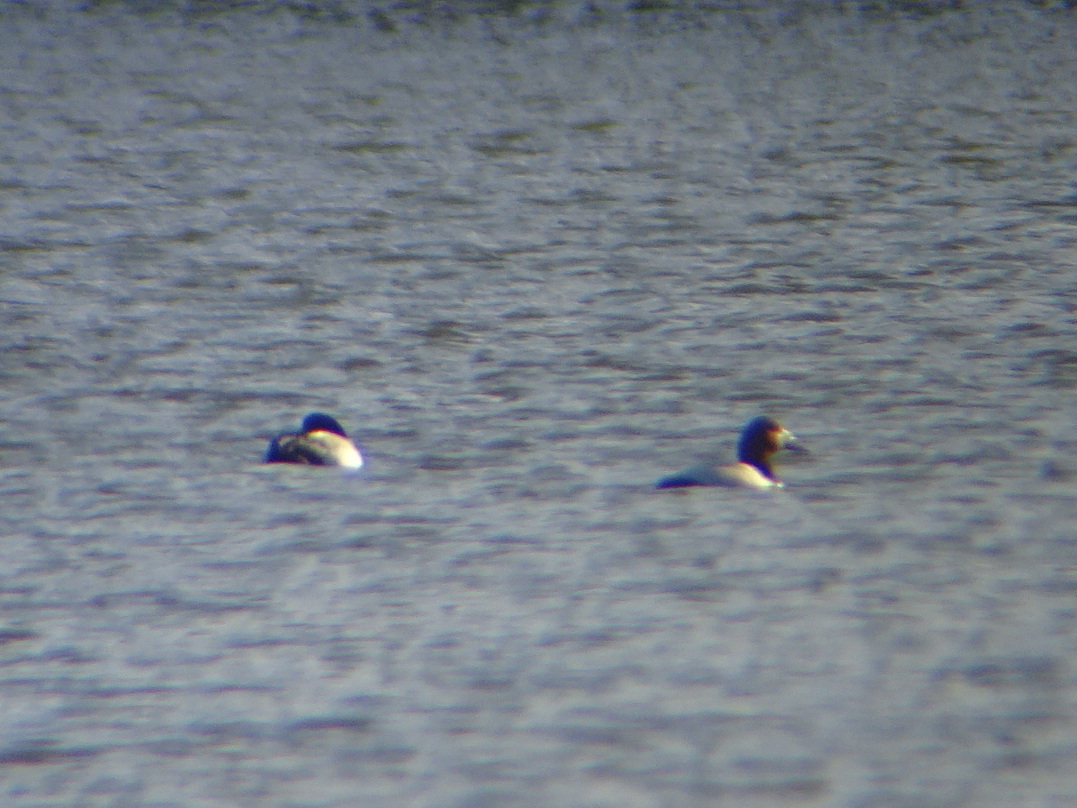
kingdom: Animalia
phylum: Chordata
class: Aves
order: Anseriformes
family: Anatidae
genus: Aythya
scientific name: Aythya valisineria
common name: Canvasback
